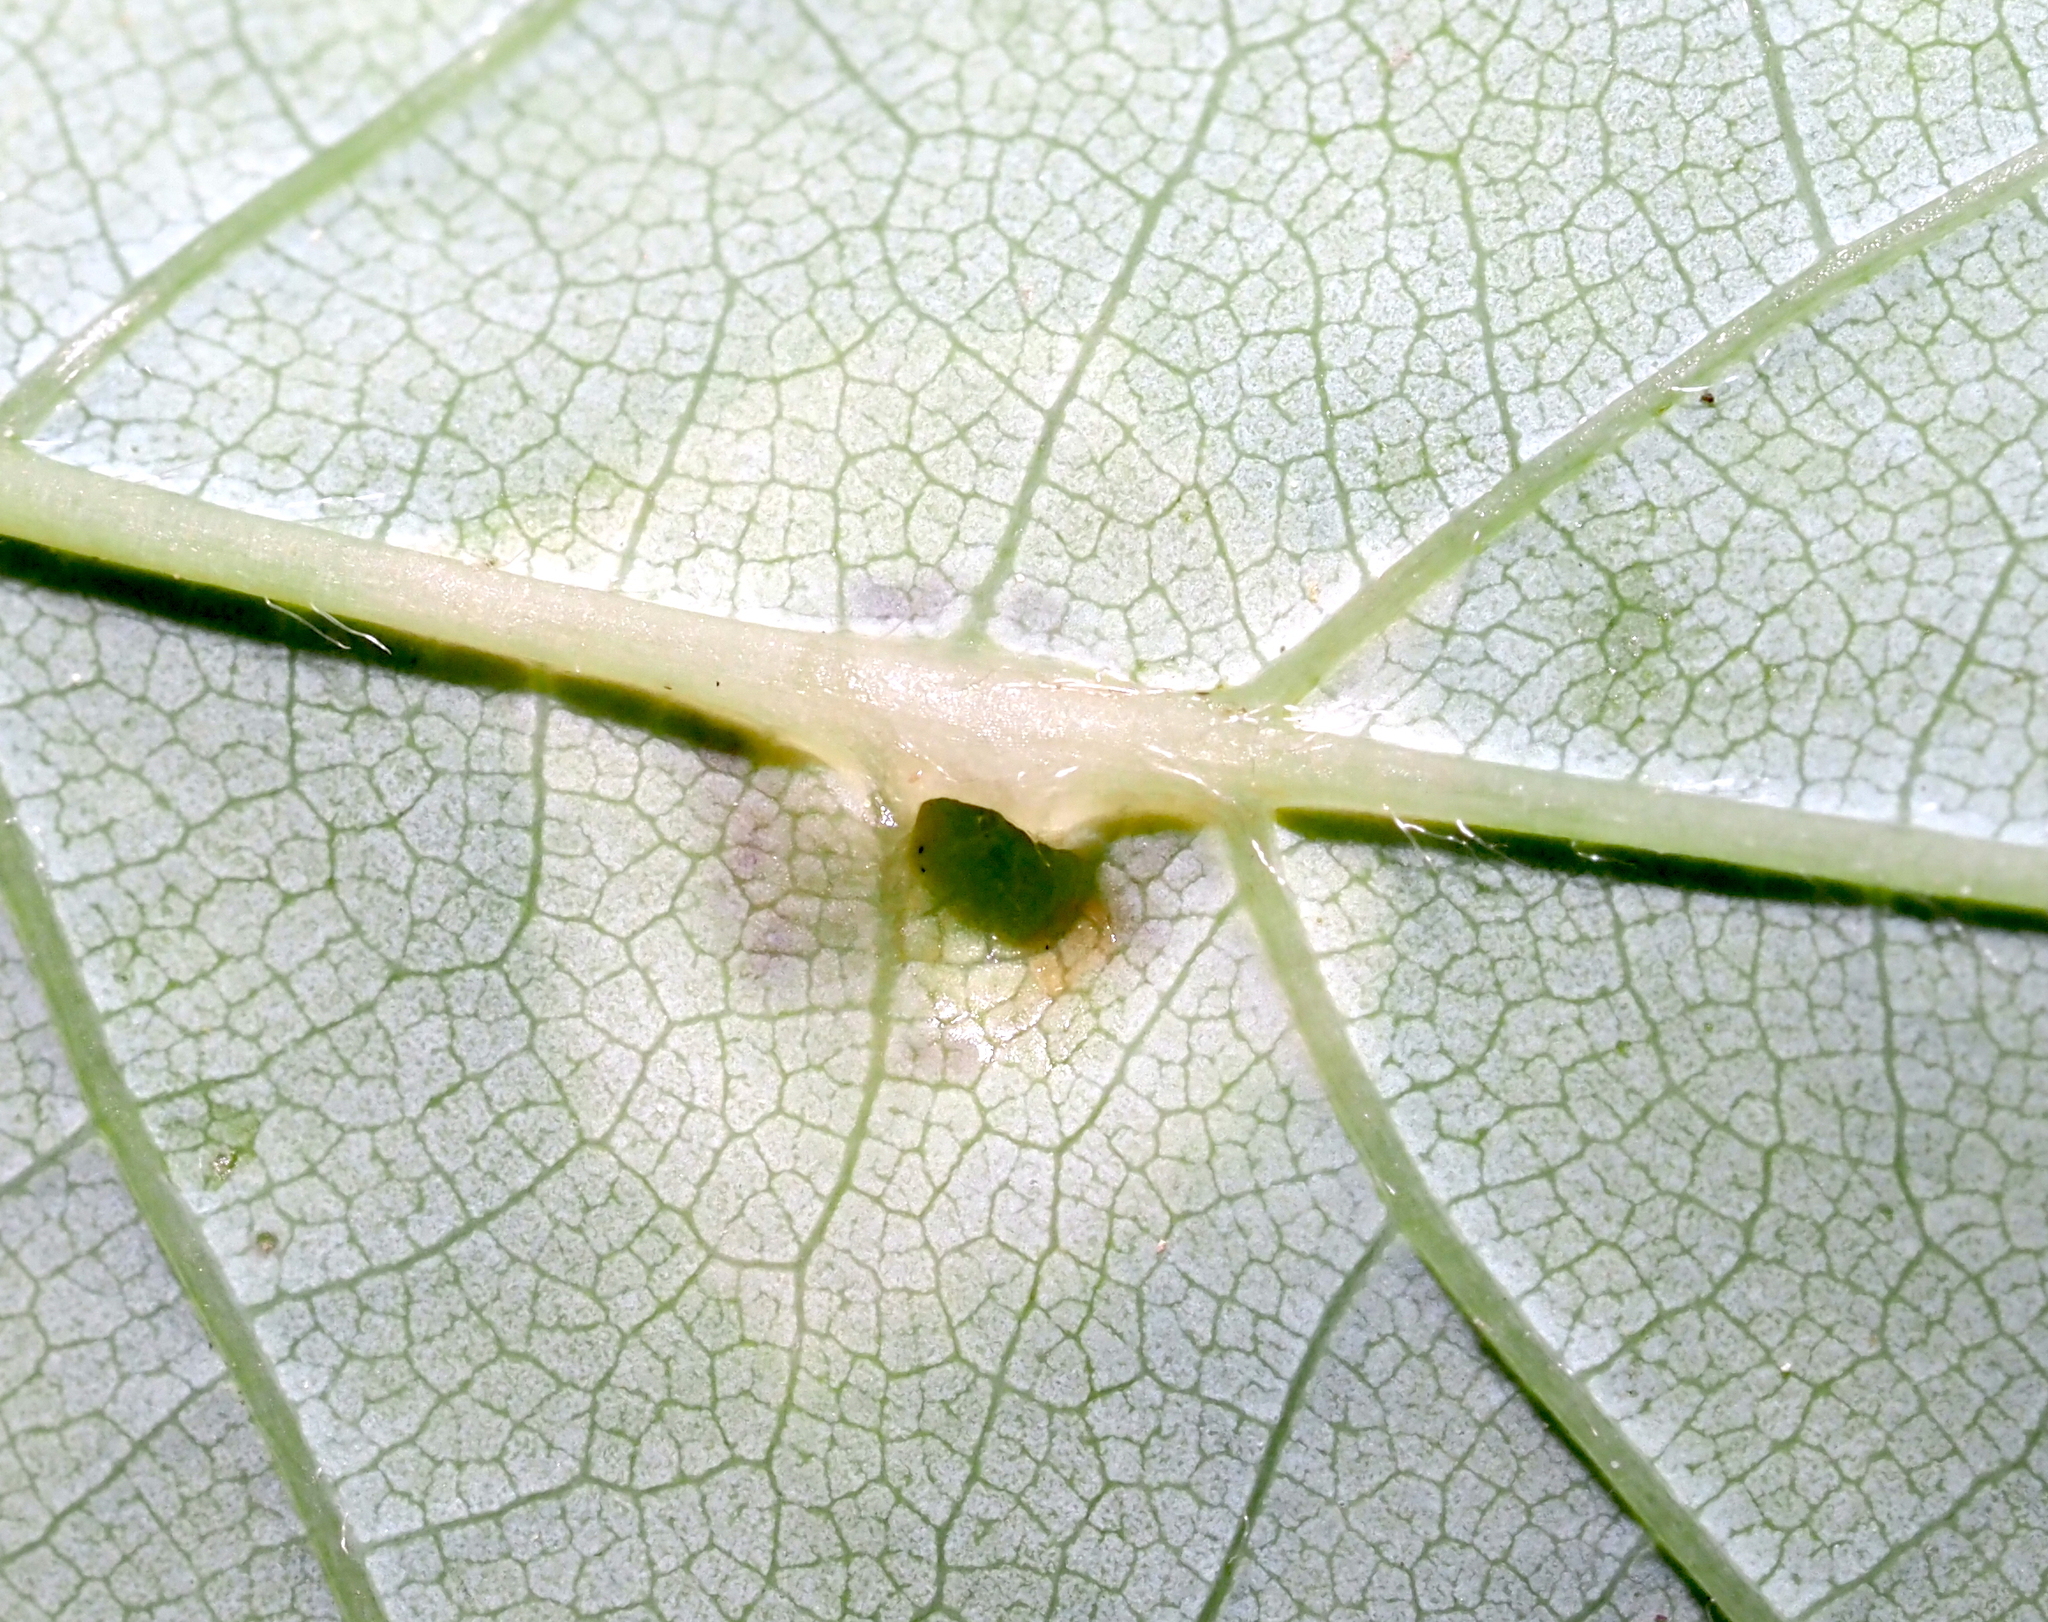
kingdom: Animalia
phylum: Arthropoda
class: Insecta
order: Diptera
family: Cecidomyiidae
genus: Acericecis
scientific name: Acericecis ocellaris
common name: Ocellate gall midge
